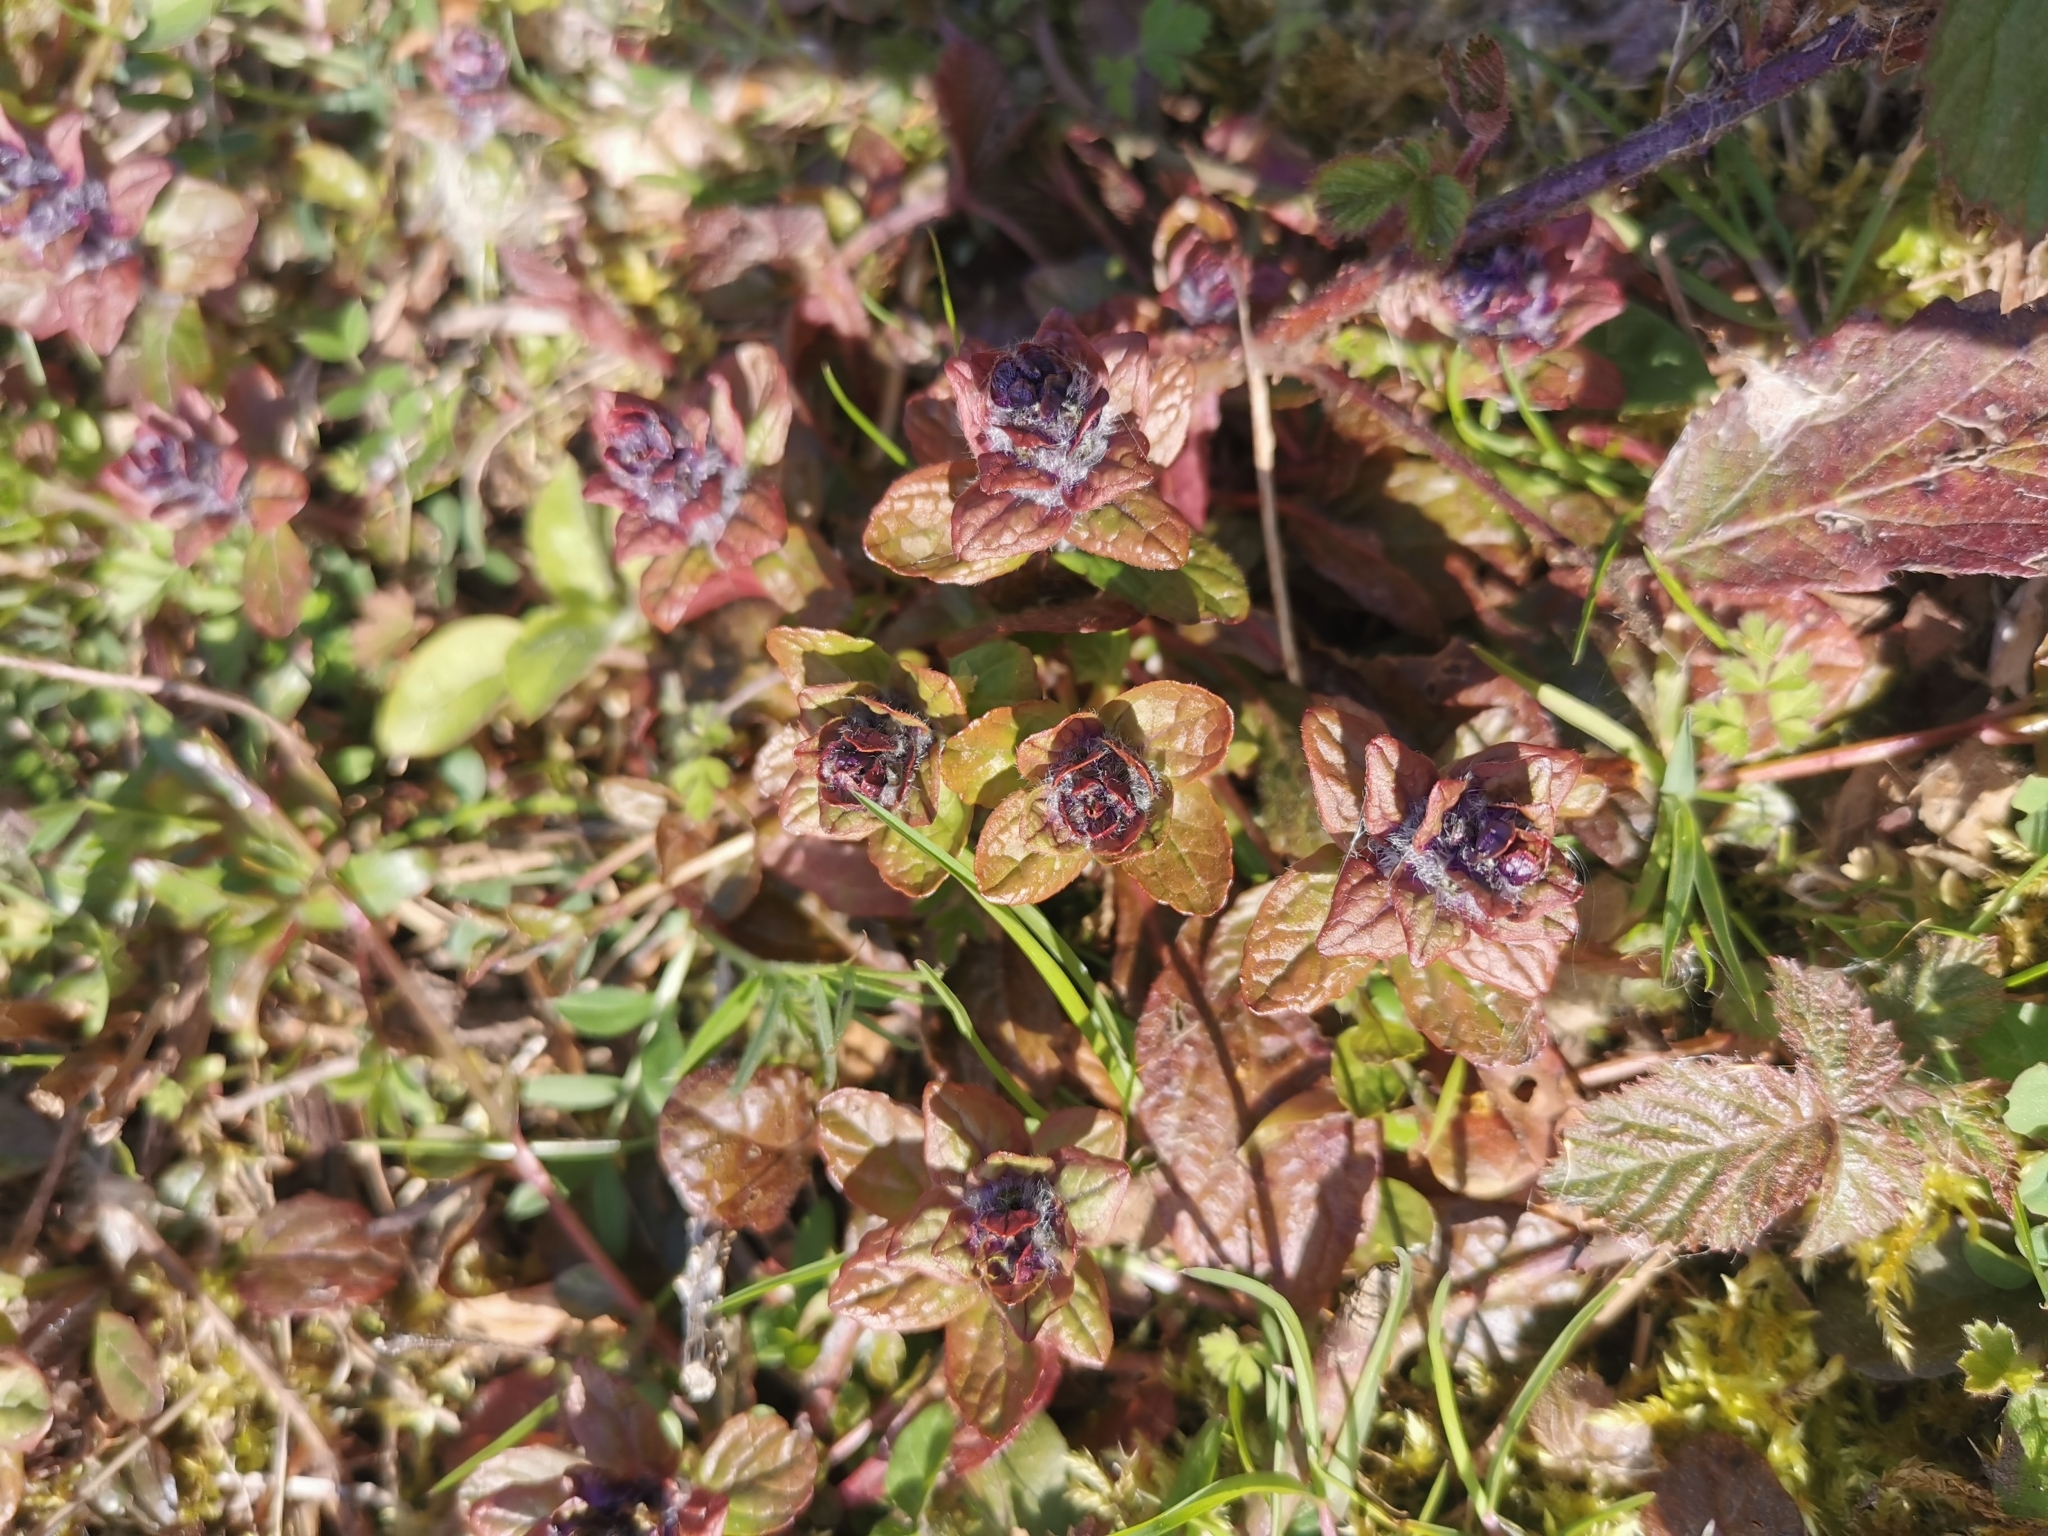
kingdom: Plantae
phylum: Tracheophyta
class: Magnoliopsida
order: Lamiales
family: Lamiaceae
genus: Ajuga
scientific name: Ajuga reptans
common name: Bugle
